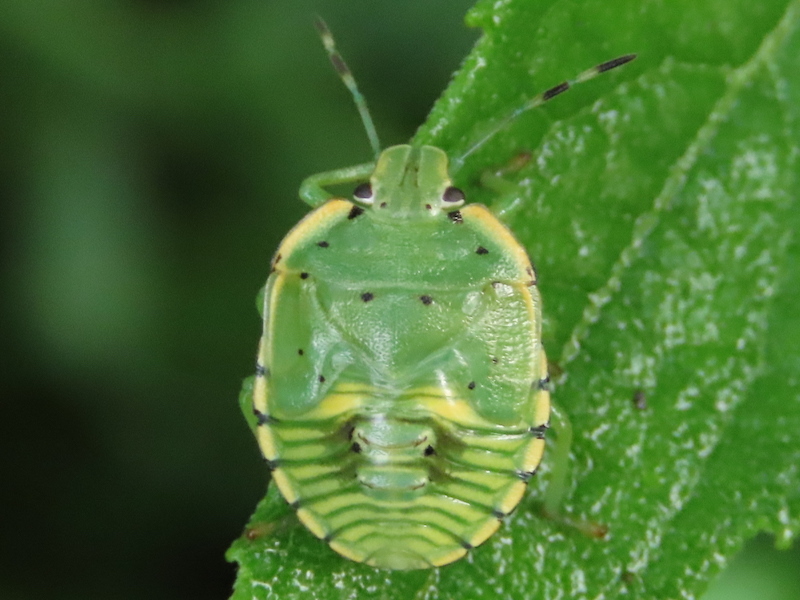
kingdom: Animalia
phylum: Arthropoda
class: Insecta
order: Hemiptera
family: Pentatomidae
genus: Chinavia
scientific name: Chinavia hilaris
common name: Green stink bug
